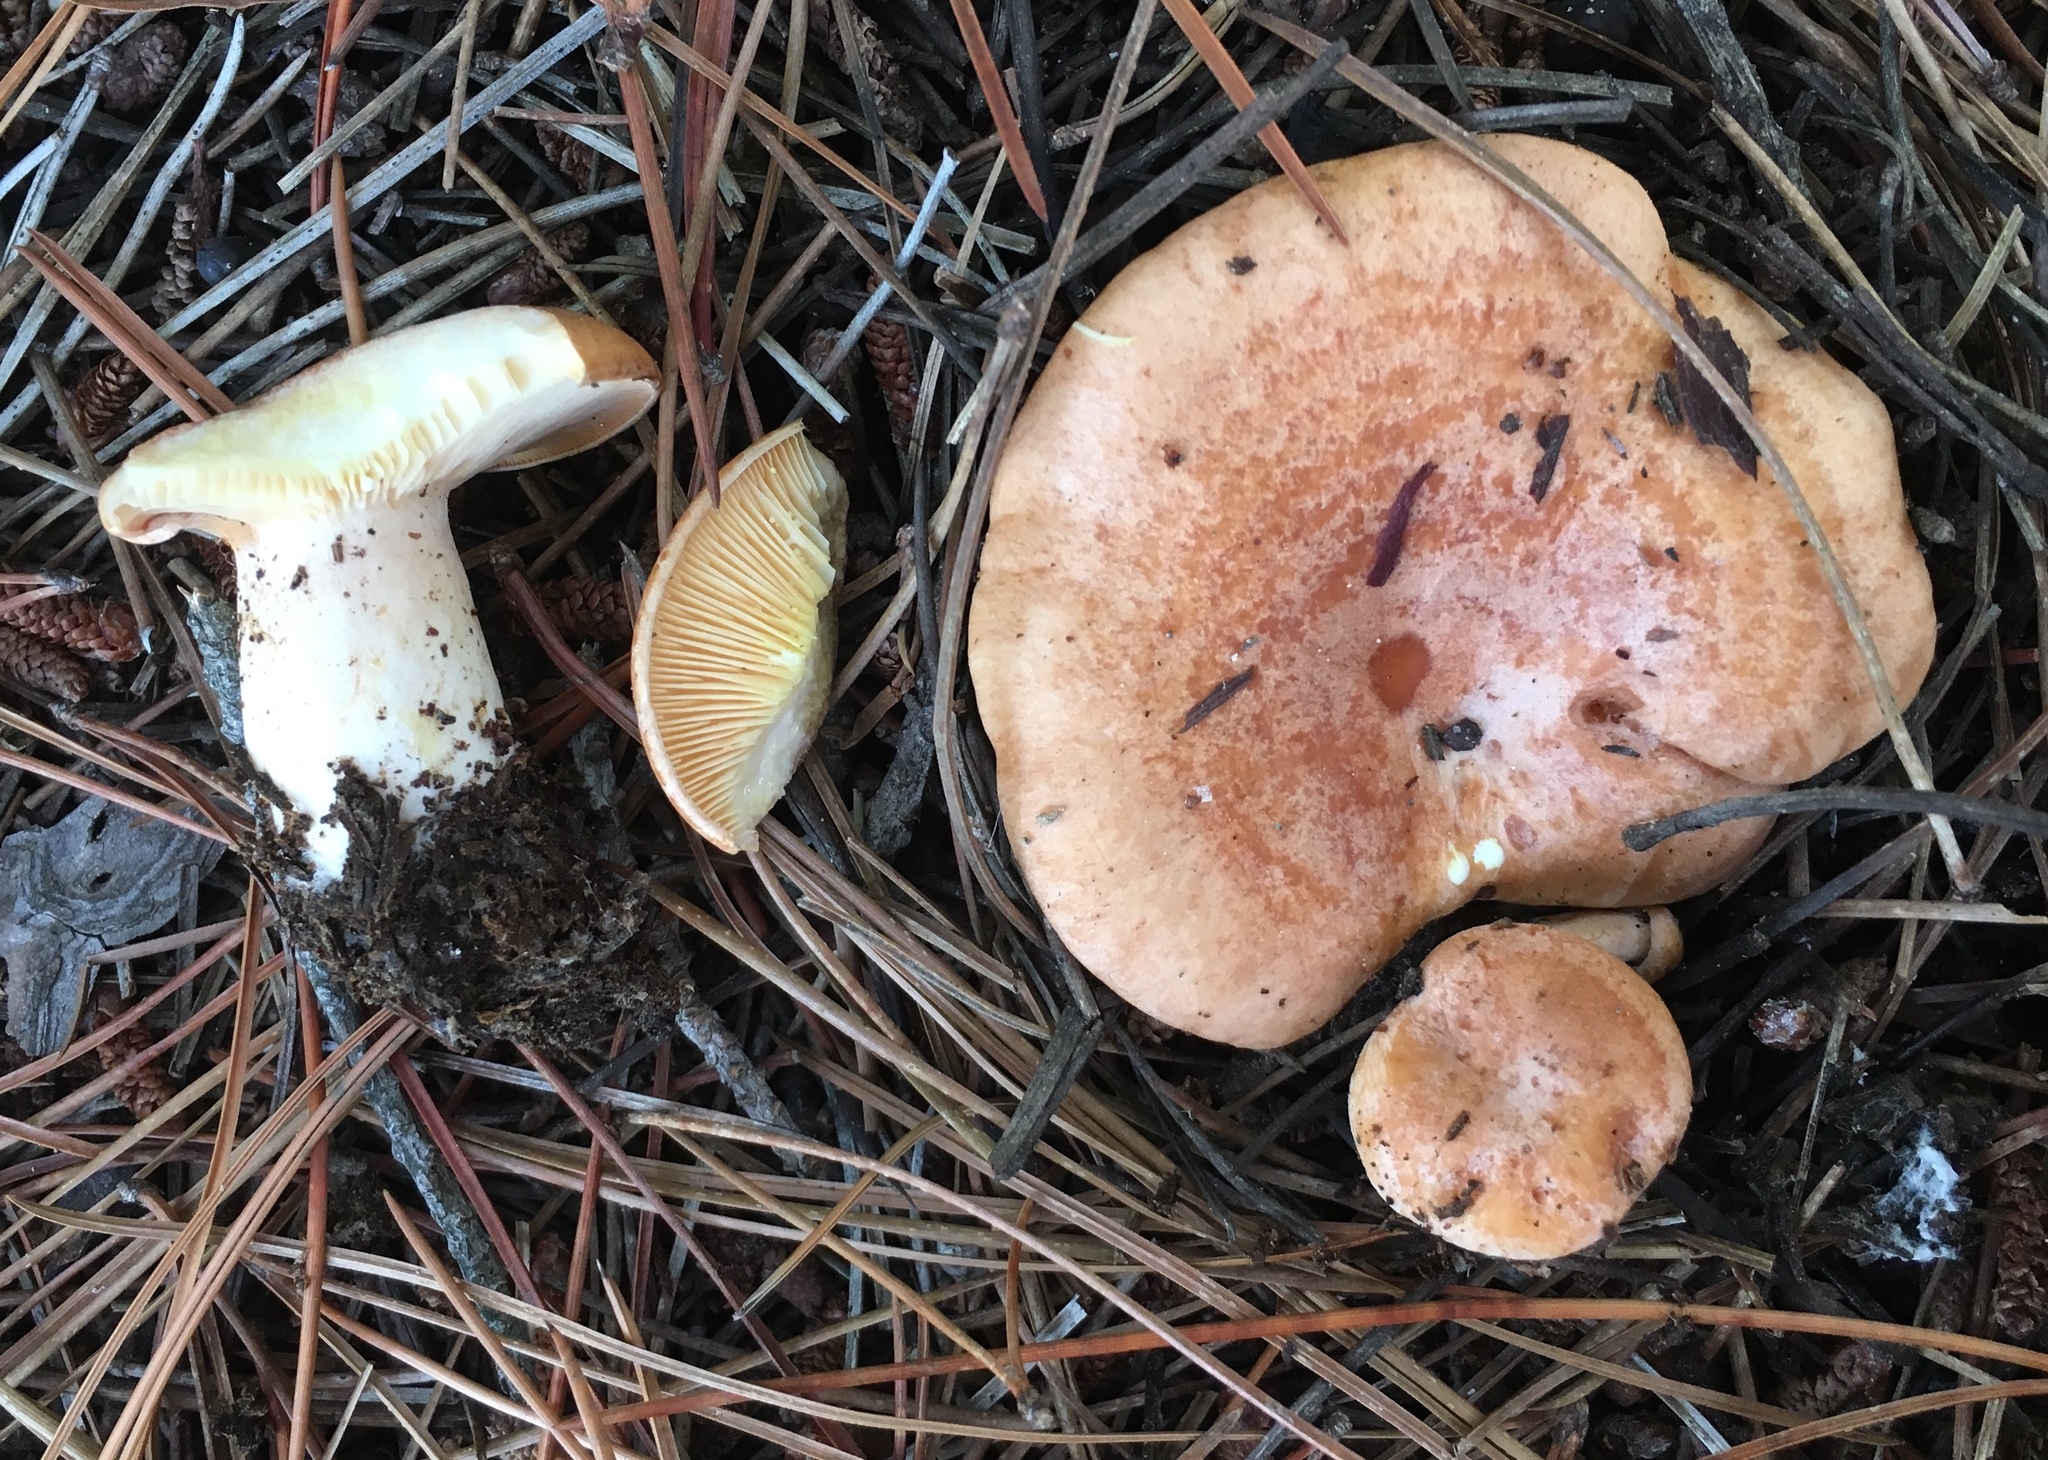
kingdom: Fungi
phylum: Basidiomycota
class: Agaricomycetes
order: Russulales
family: Russulaceae
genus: Lactarius
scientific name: Lactarius xanthogalactus
